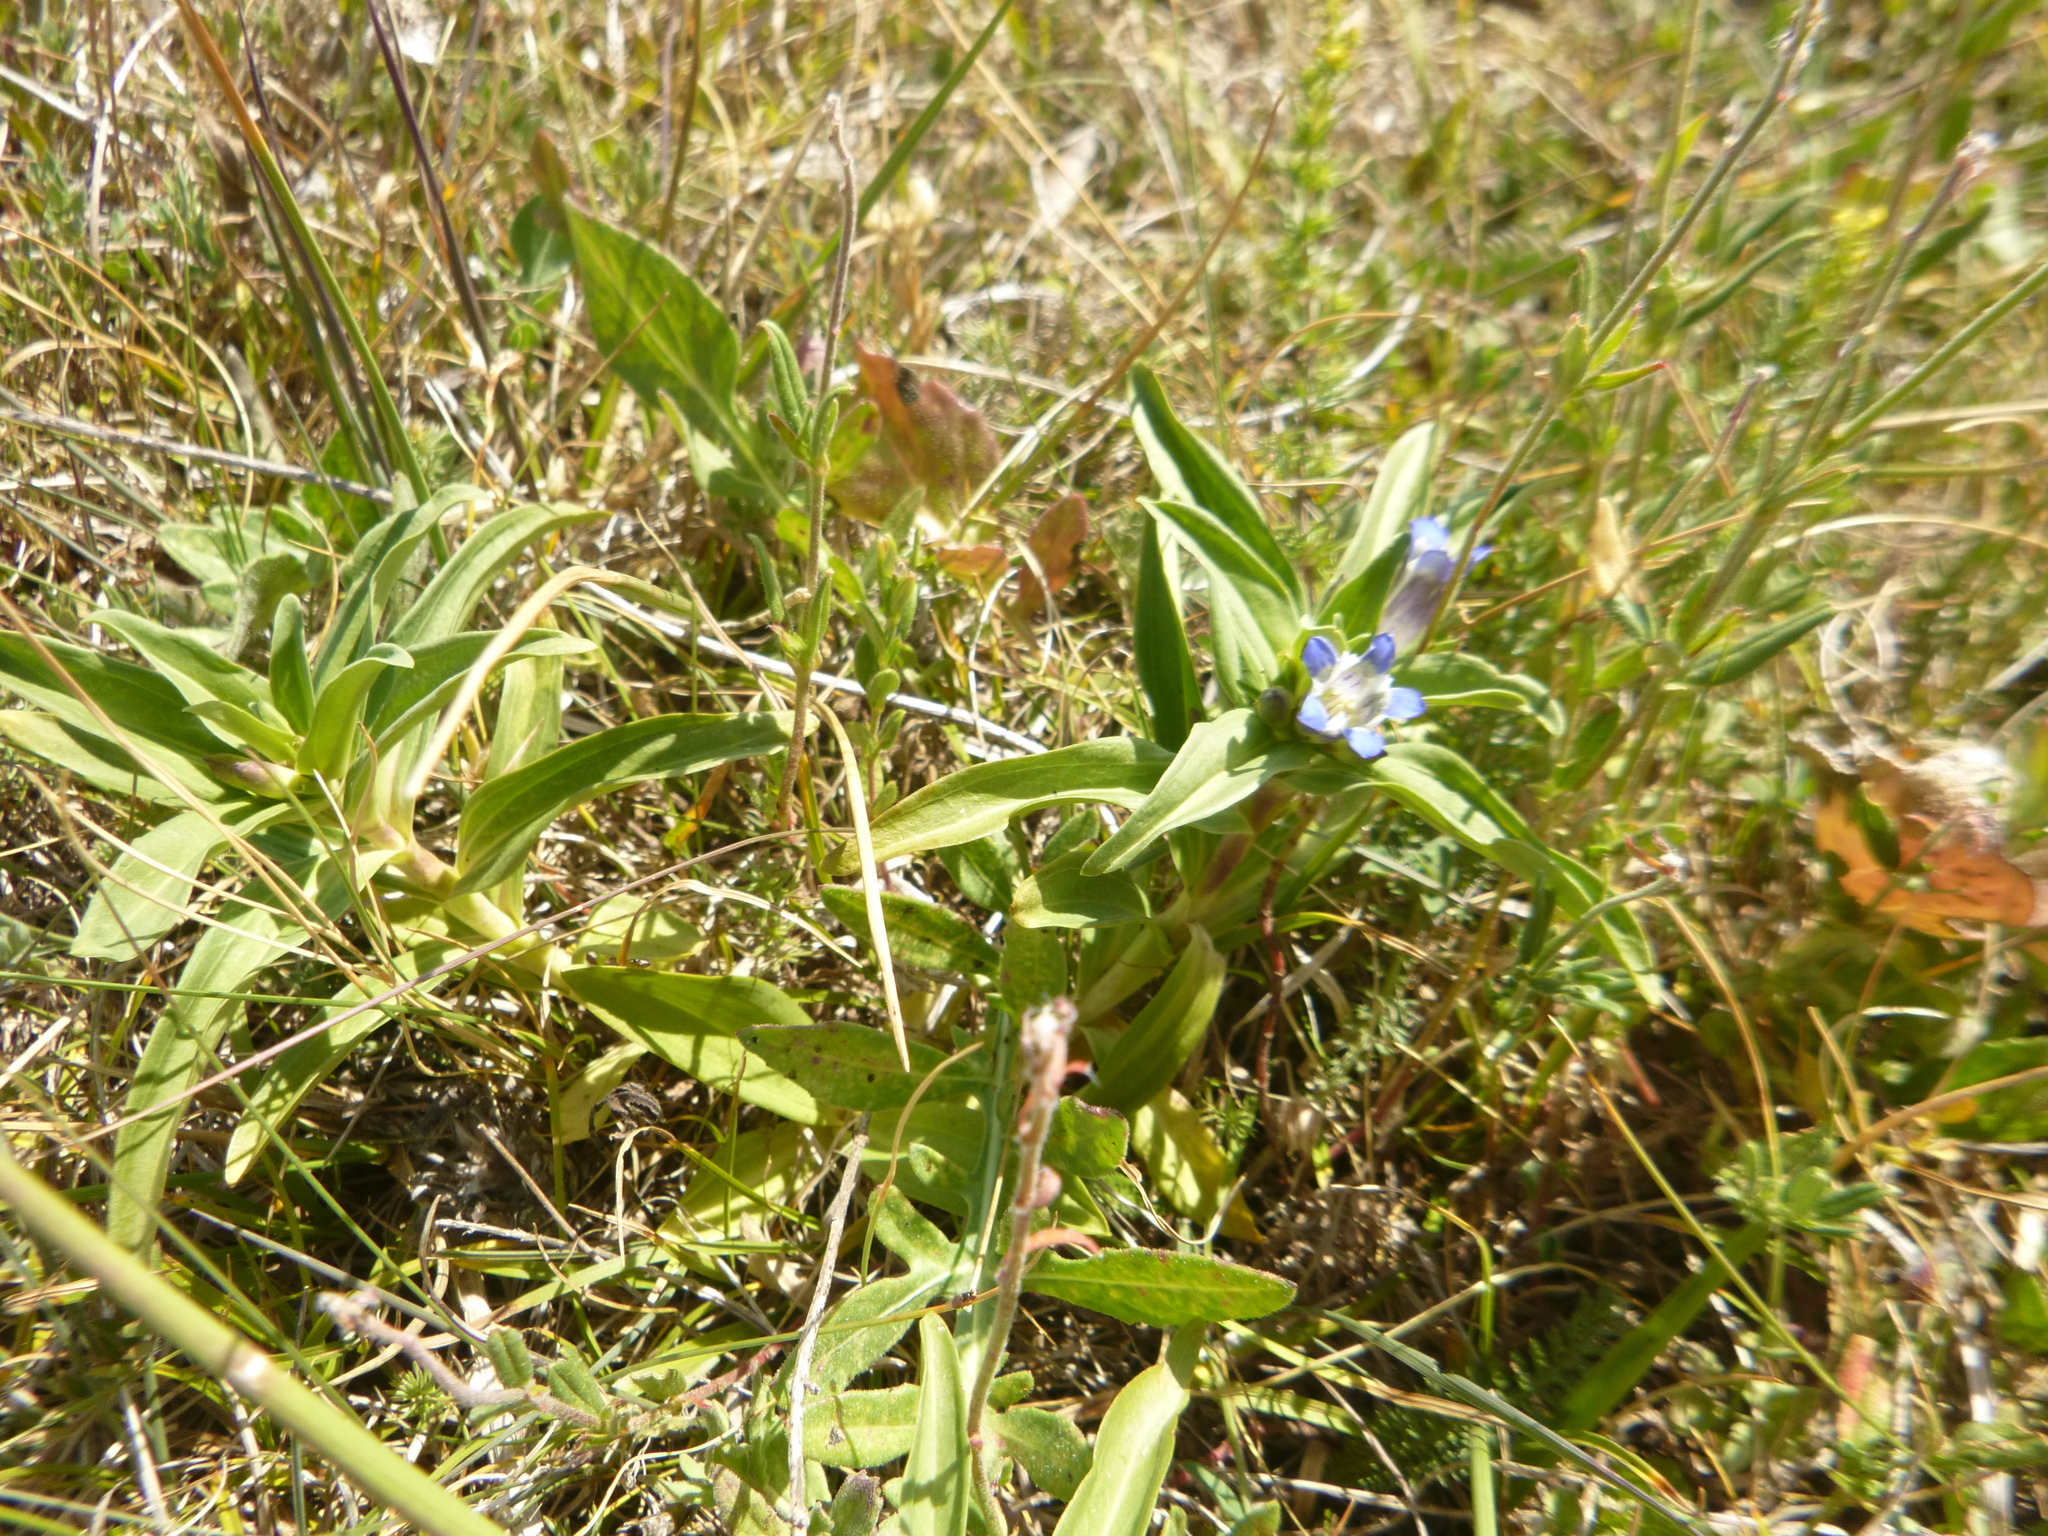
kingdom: Plantae
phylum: Tracheophyta
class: Magnoliopsida
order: Gentianales
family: Gentianaceae
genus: Gentiana
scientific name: Gentiana cruciata
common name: Cross gentian
